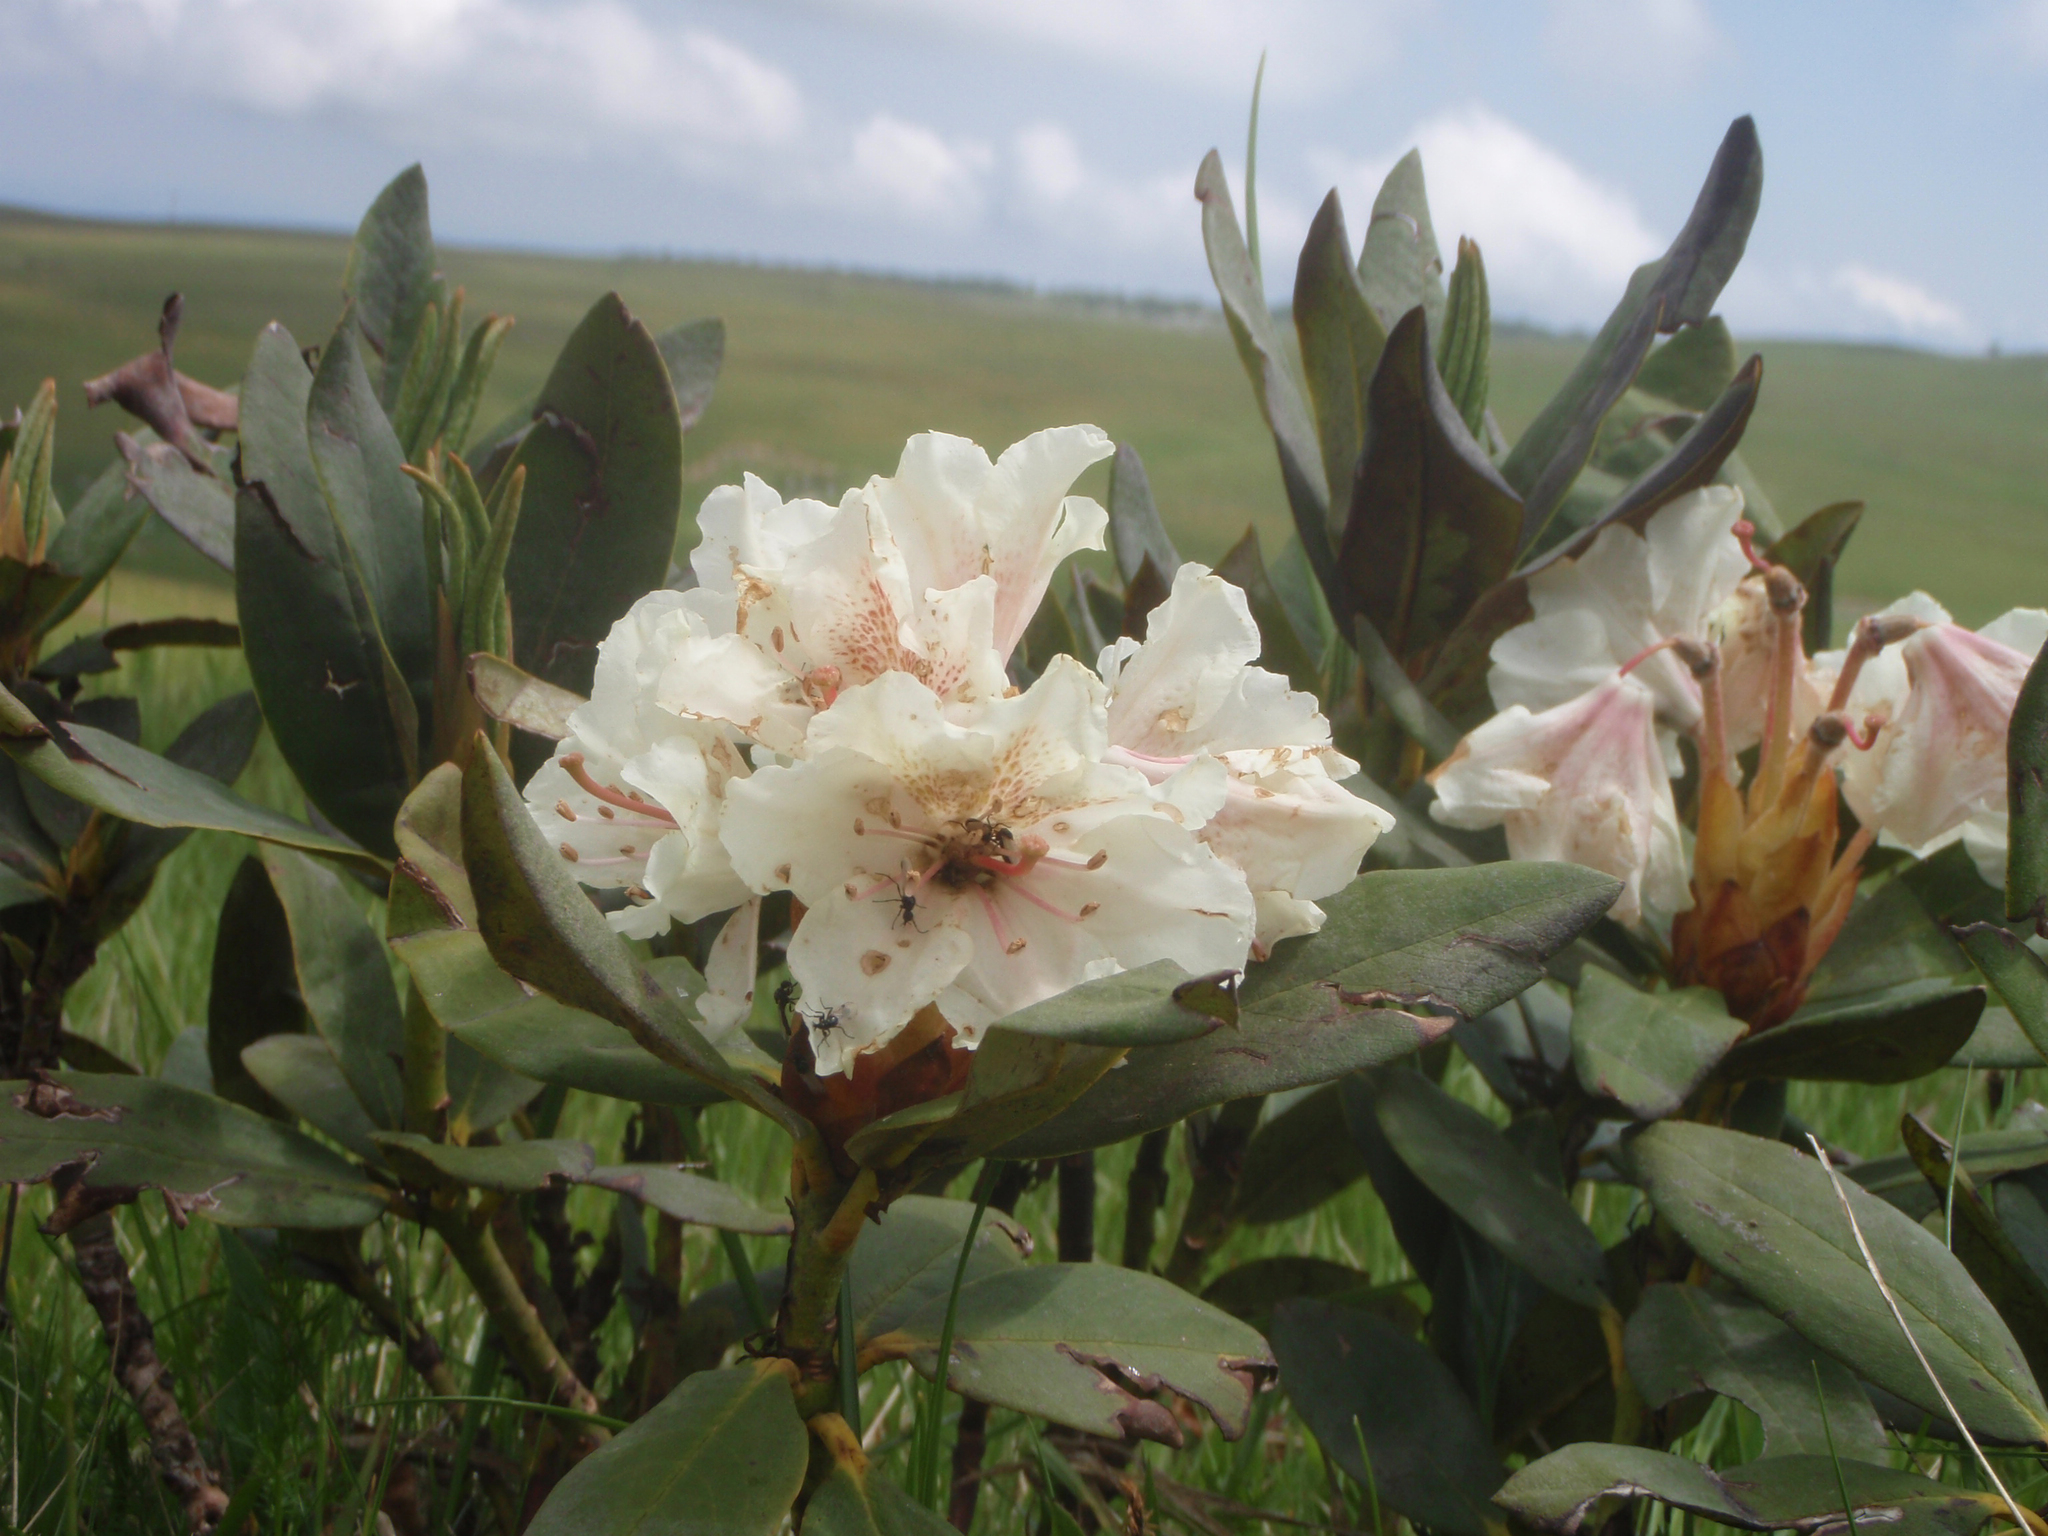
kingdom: Plantae
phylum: Tracheophyta
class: Magnoliopsida
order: Ericales
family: Ericaceae
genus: Rhododendron
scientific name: Rhododendron caucasicum
